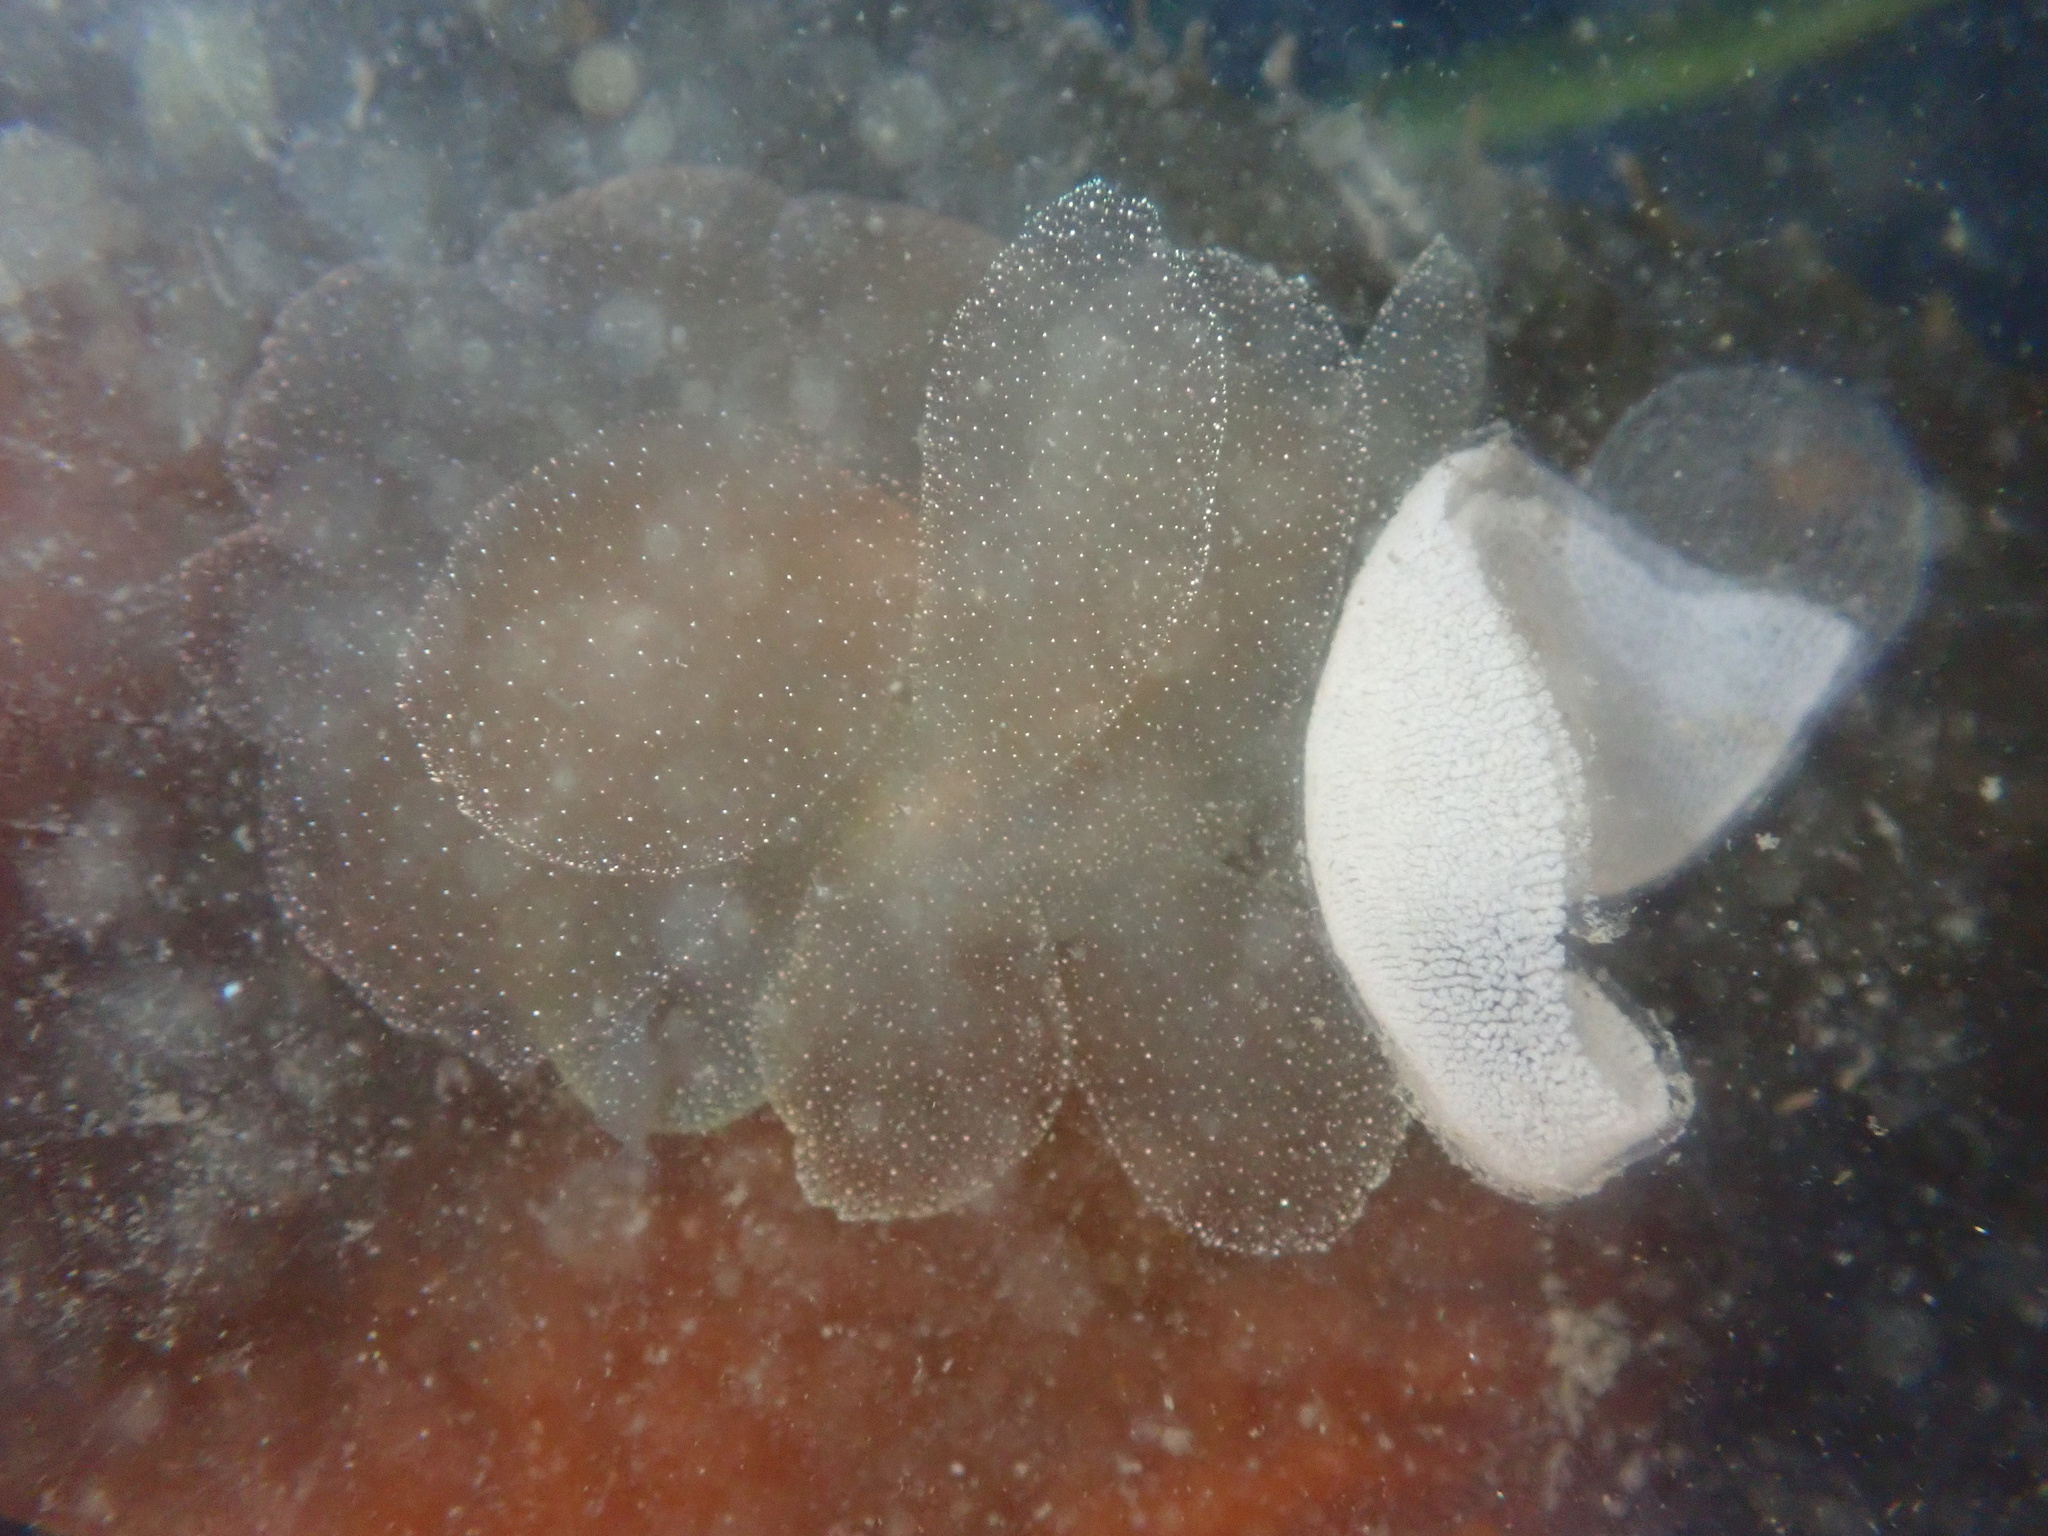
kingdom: Animalia
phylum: Mollusca
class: Gastropoda
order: Nudibranchia
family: Tethydidae
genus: Melibe
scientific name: Melibe leonina
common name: Lion nudibranch
